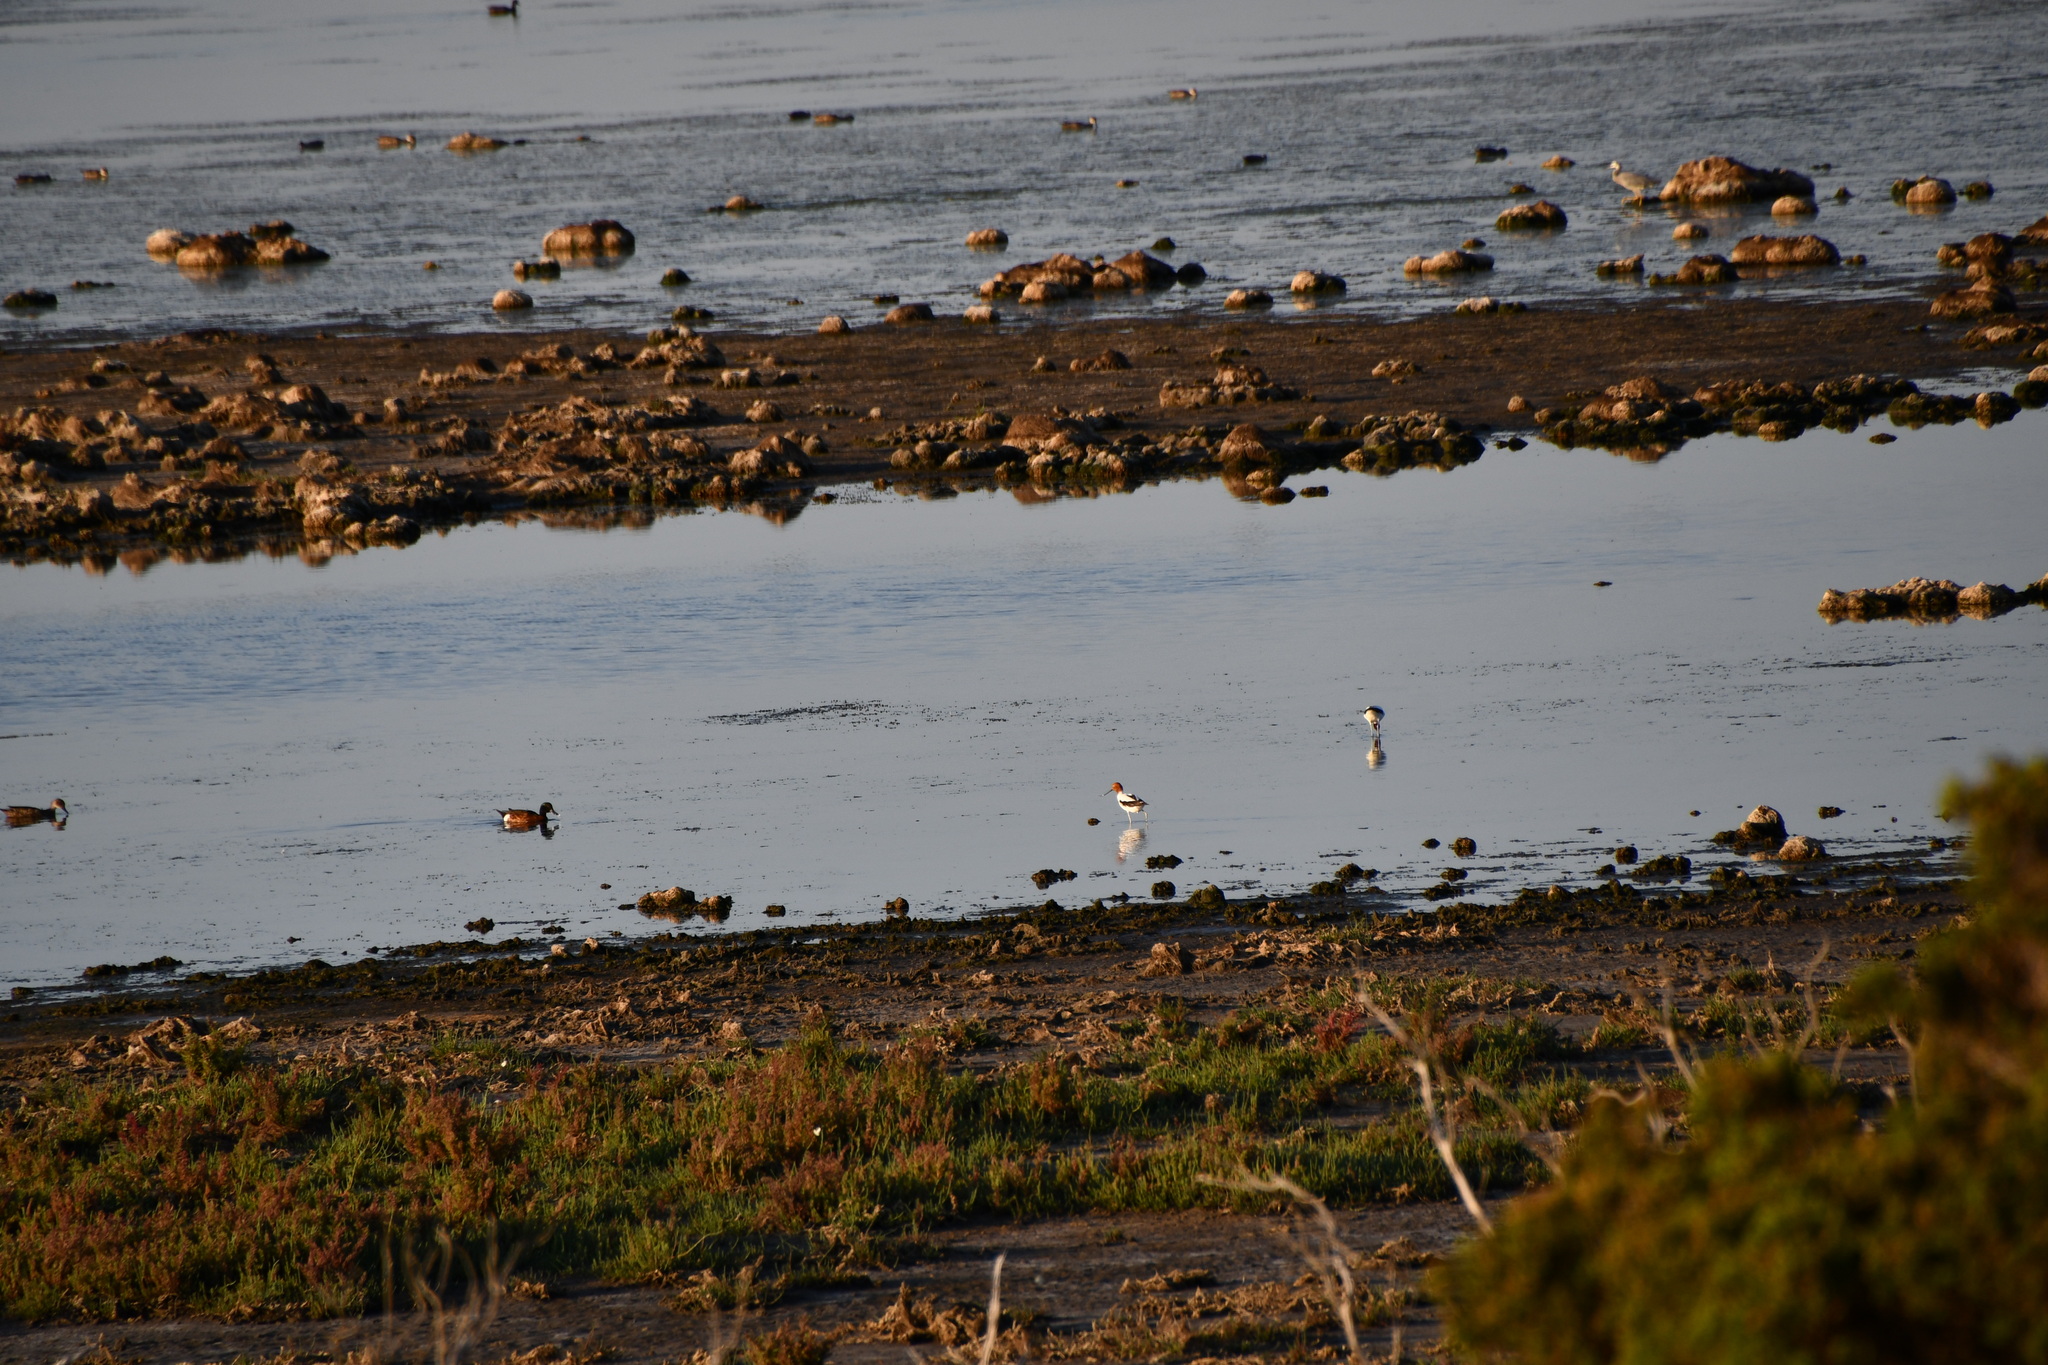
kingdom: Animalia
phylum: Chordata
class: Aves
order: Charadriiformes
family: Recurvirostridae
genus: Recurvirostra
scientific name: Recurvirostra novaehollandiae
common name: Red-necked avocet
